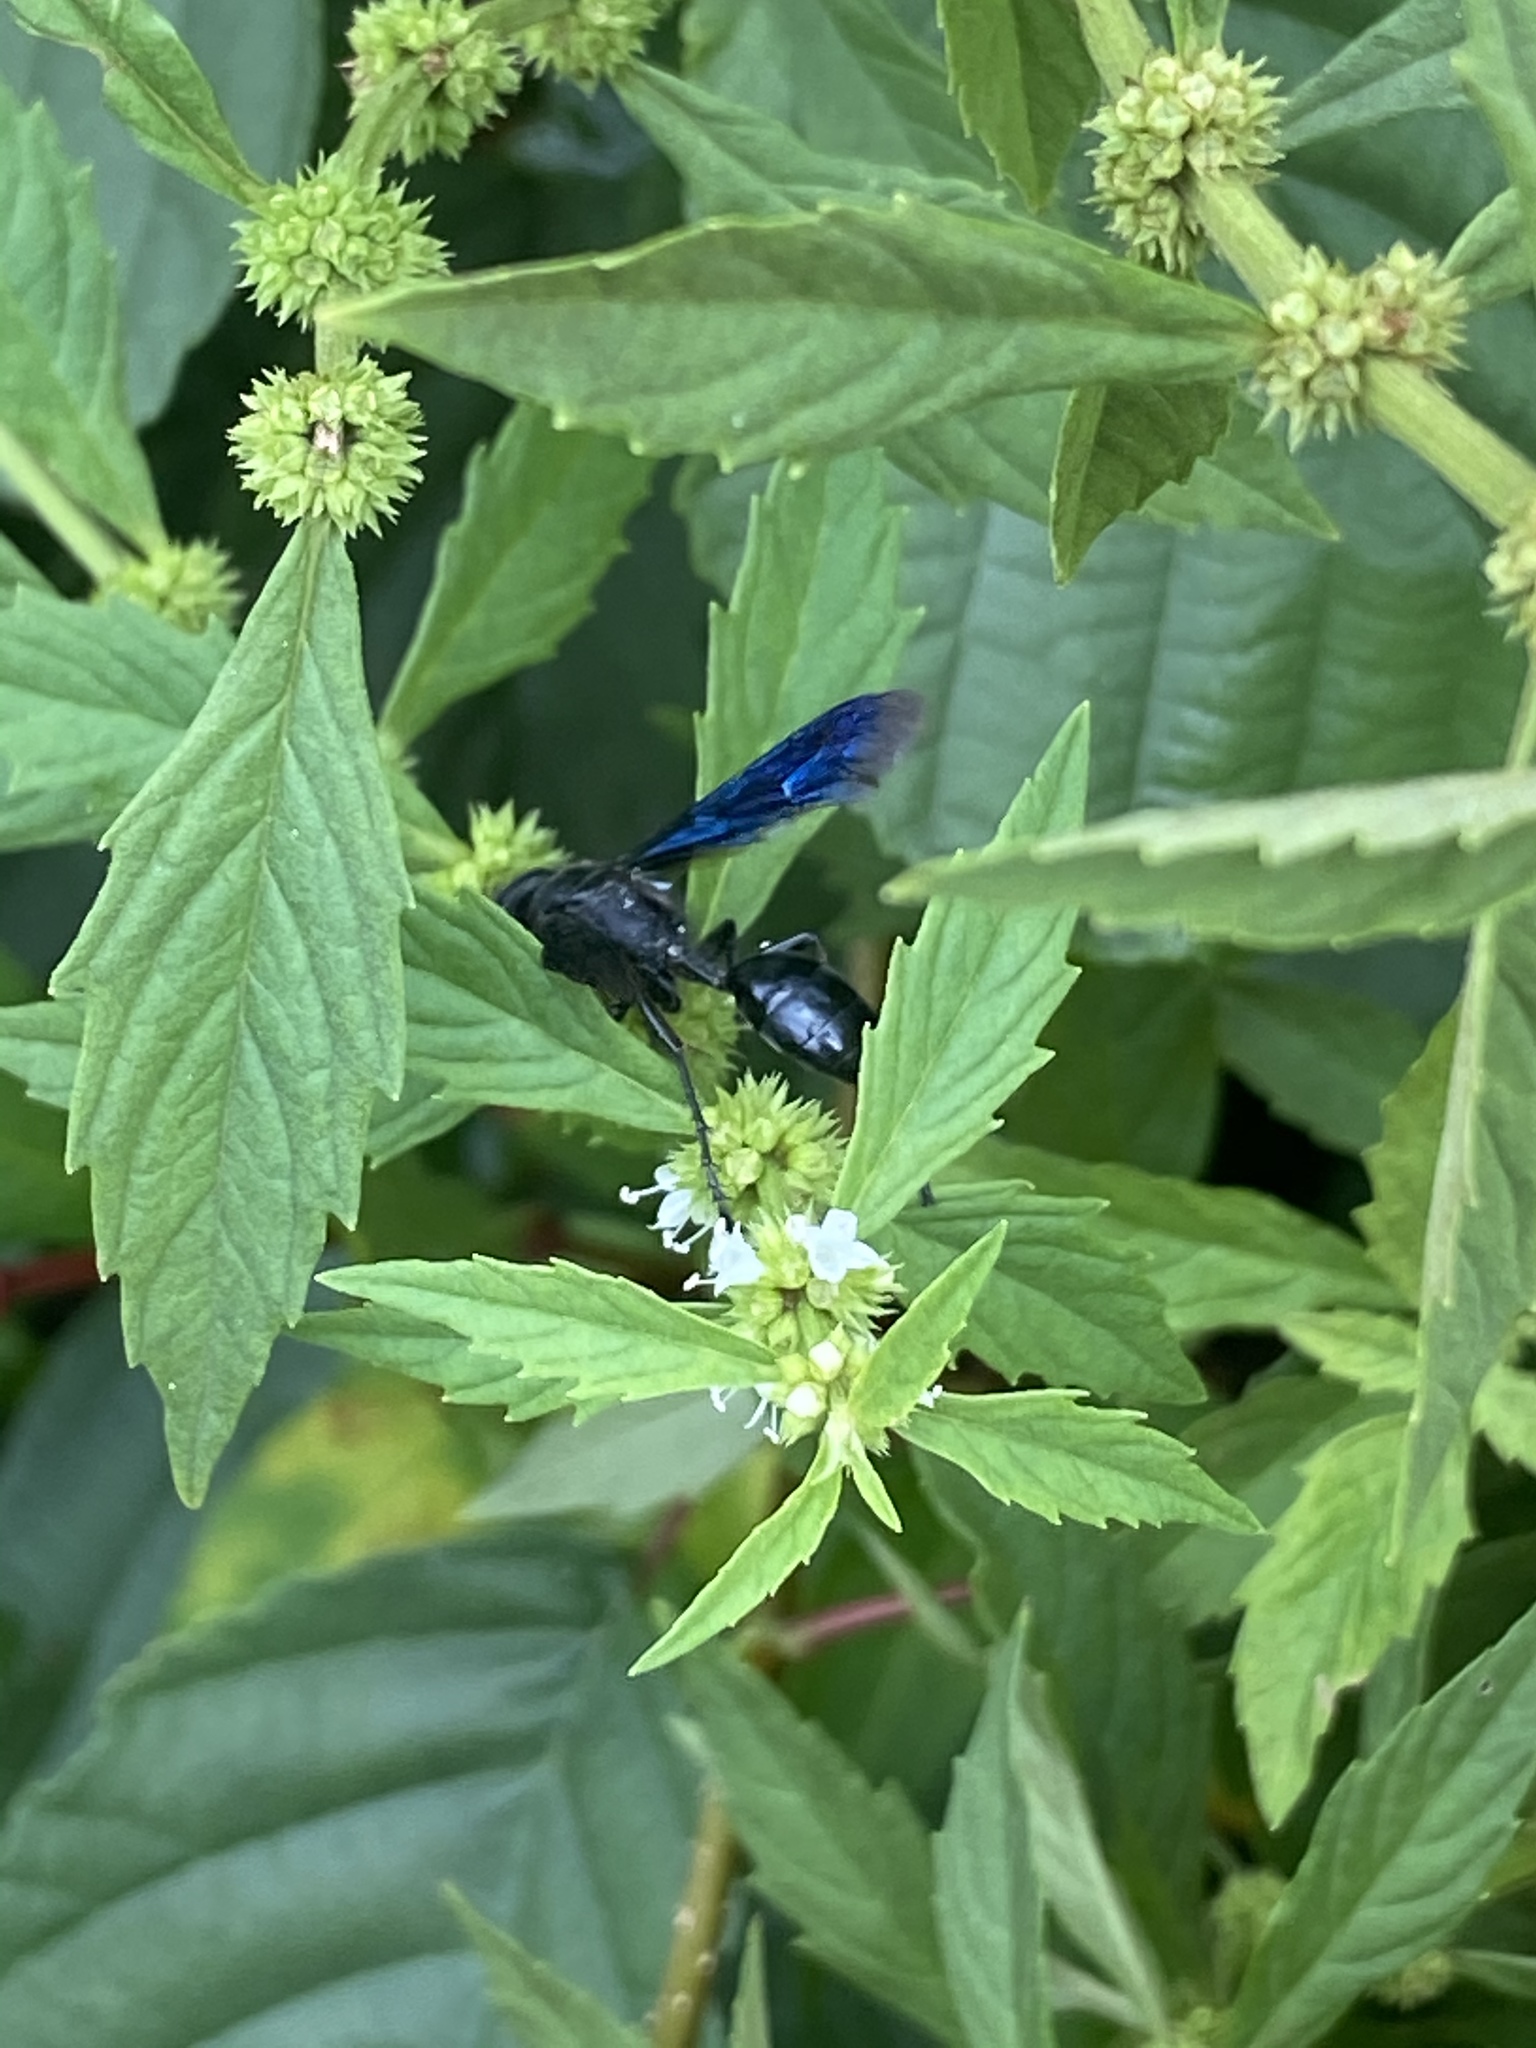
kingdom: Animalia
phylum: Arthropoda
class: Insecta
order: Hymenoptera
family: Sphecidae
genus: Isodontia
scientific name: Isodontia philadelphica
